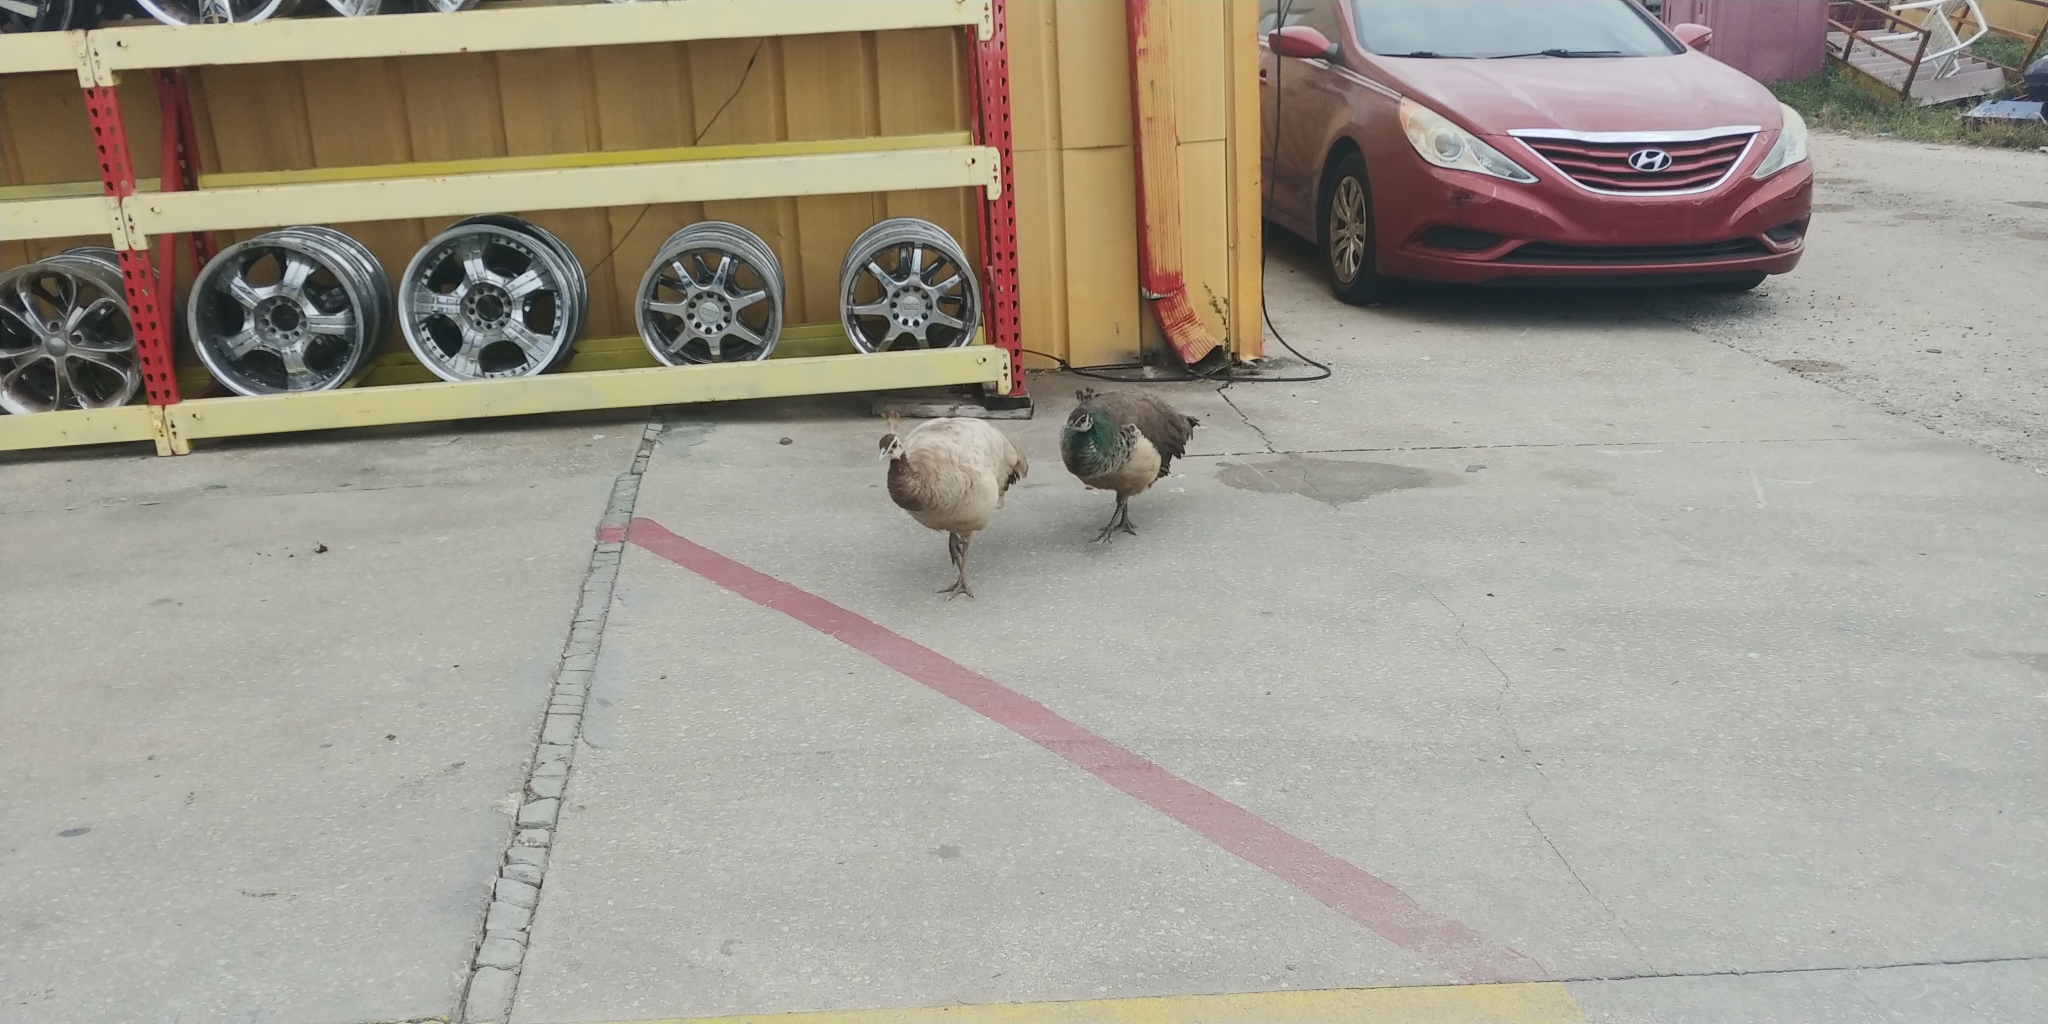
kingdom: Animalia
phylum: Chordata
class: Aves
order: Galliformes
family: Phasianidae
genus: Pavo
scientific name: Pavo cristatus
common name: Indian peafowl
